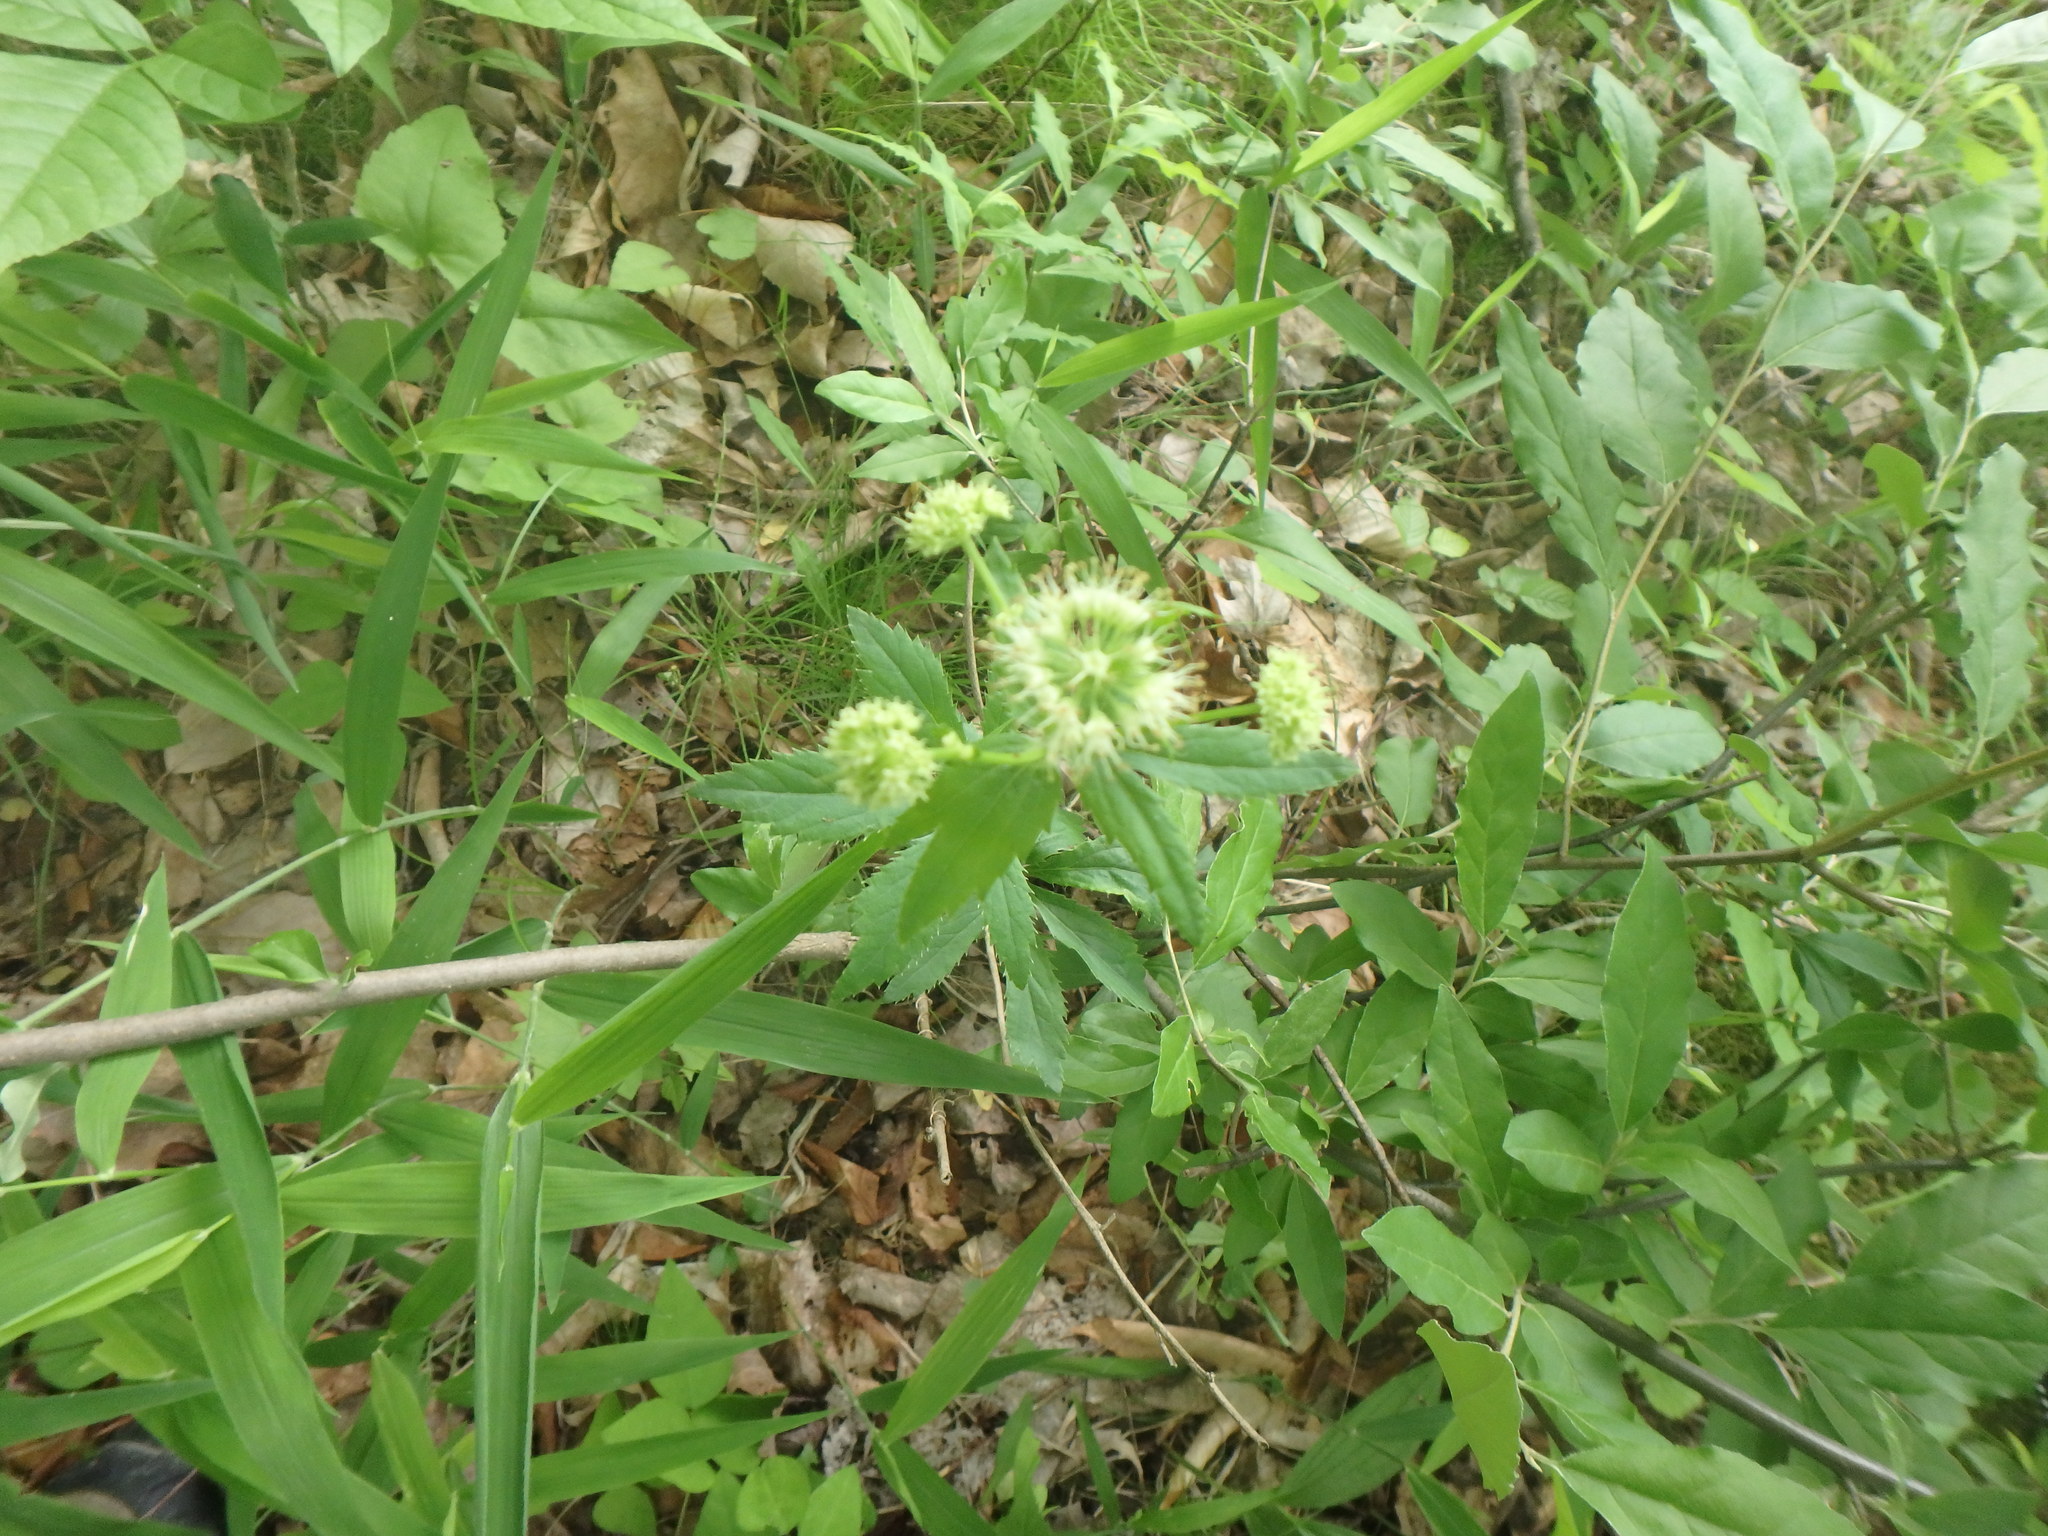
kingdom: Plantae
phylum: Tracheophyta
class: Magnoliopsida
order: Apiales
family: Apiaceae
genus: Sanicula
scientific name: Sanicula marilandica
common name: Black snakeroot
